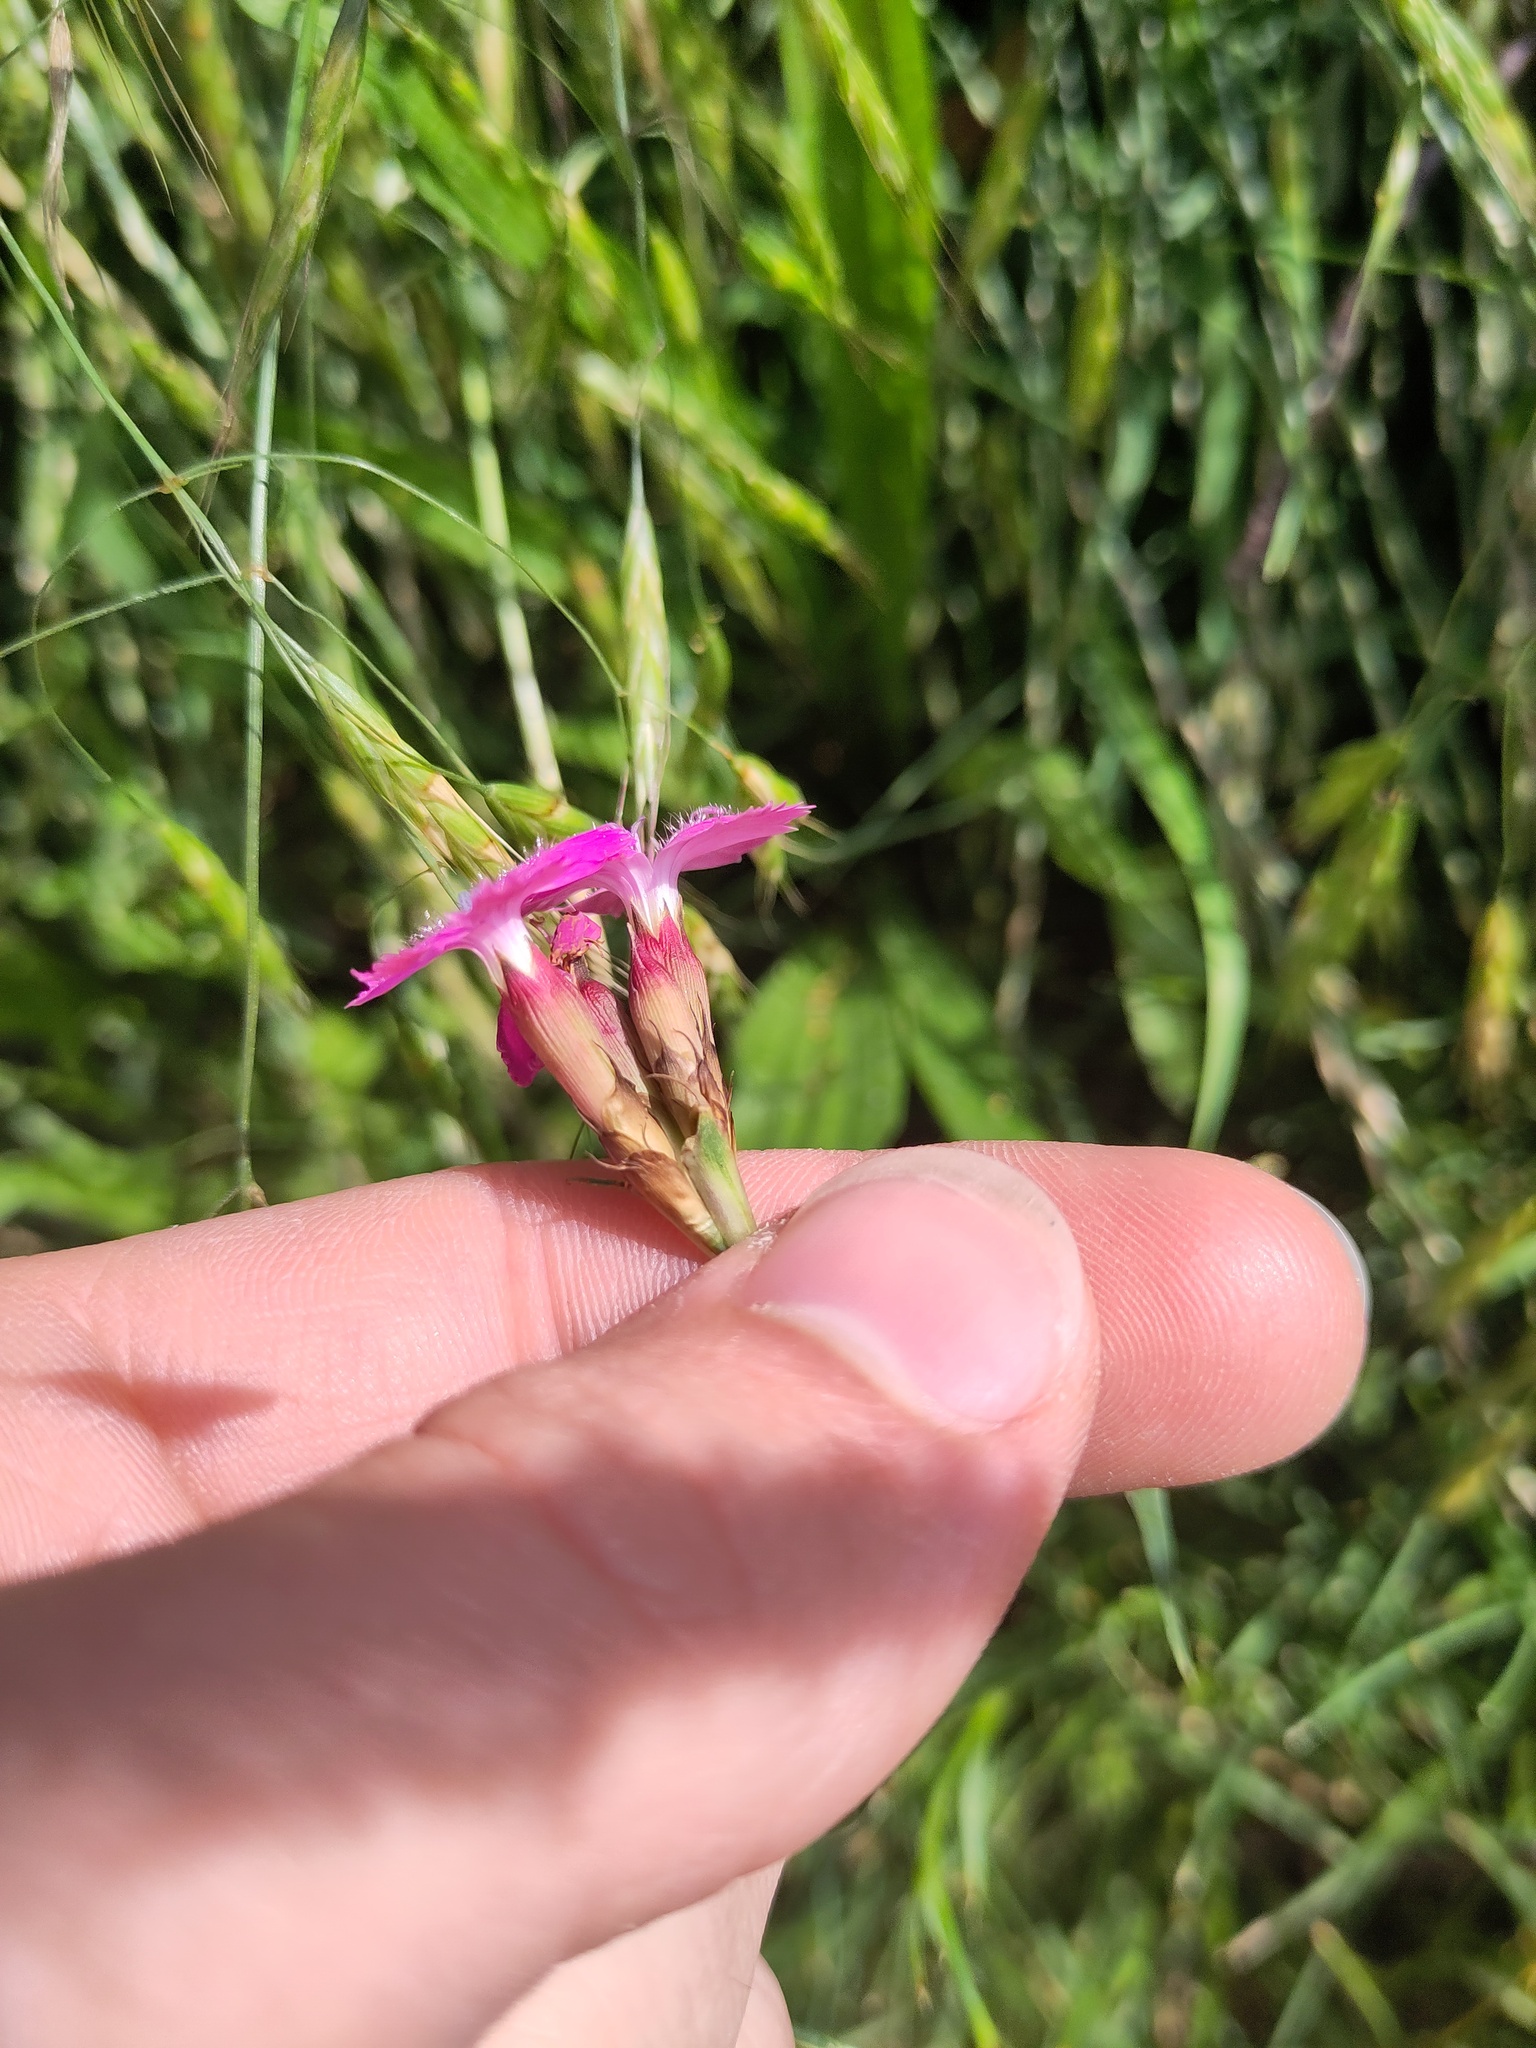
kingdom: Plantae
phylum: Tracheophyta
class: Magnoliopsida
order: Caryophyllales
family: Caryophyllaceae
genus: Dianthus
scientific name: Dianthus carthusianorum
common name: Carthusian pink
